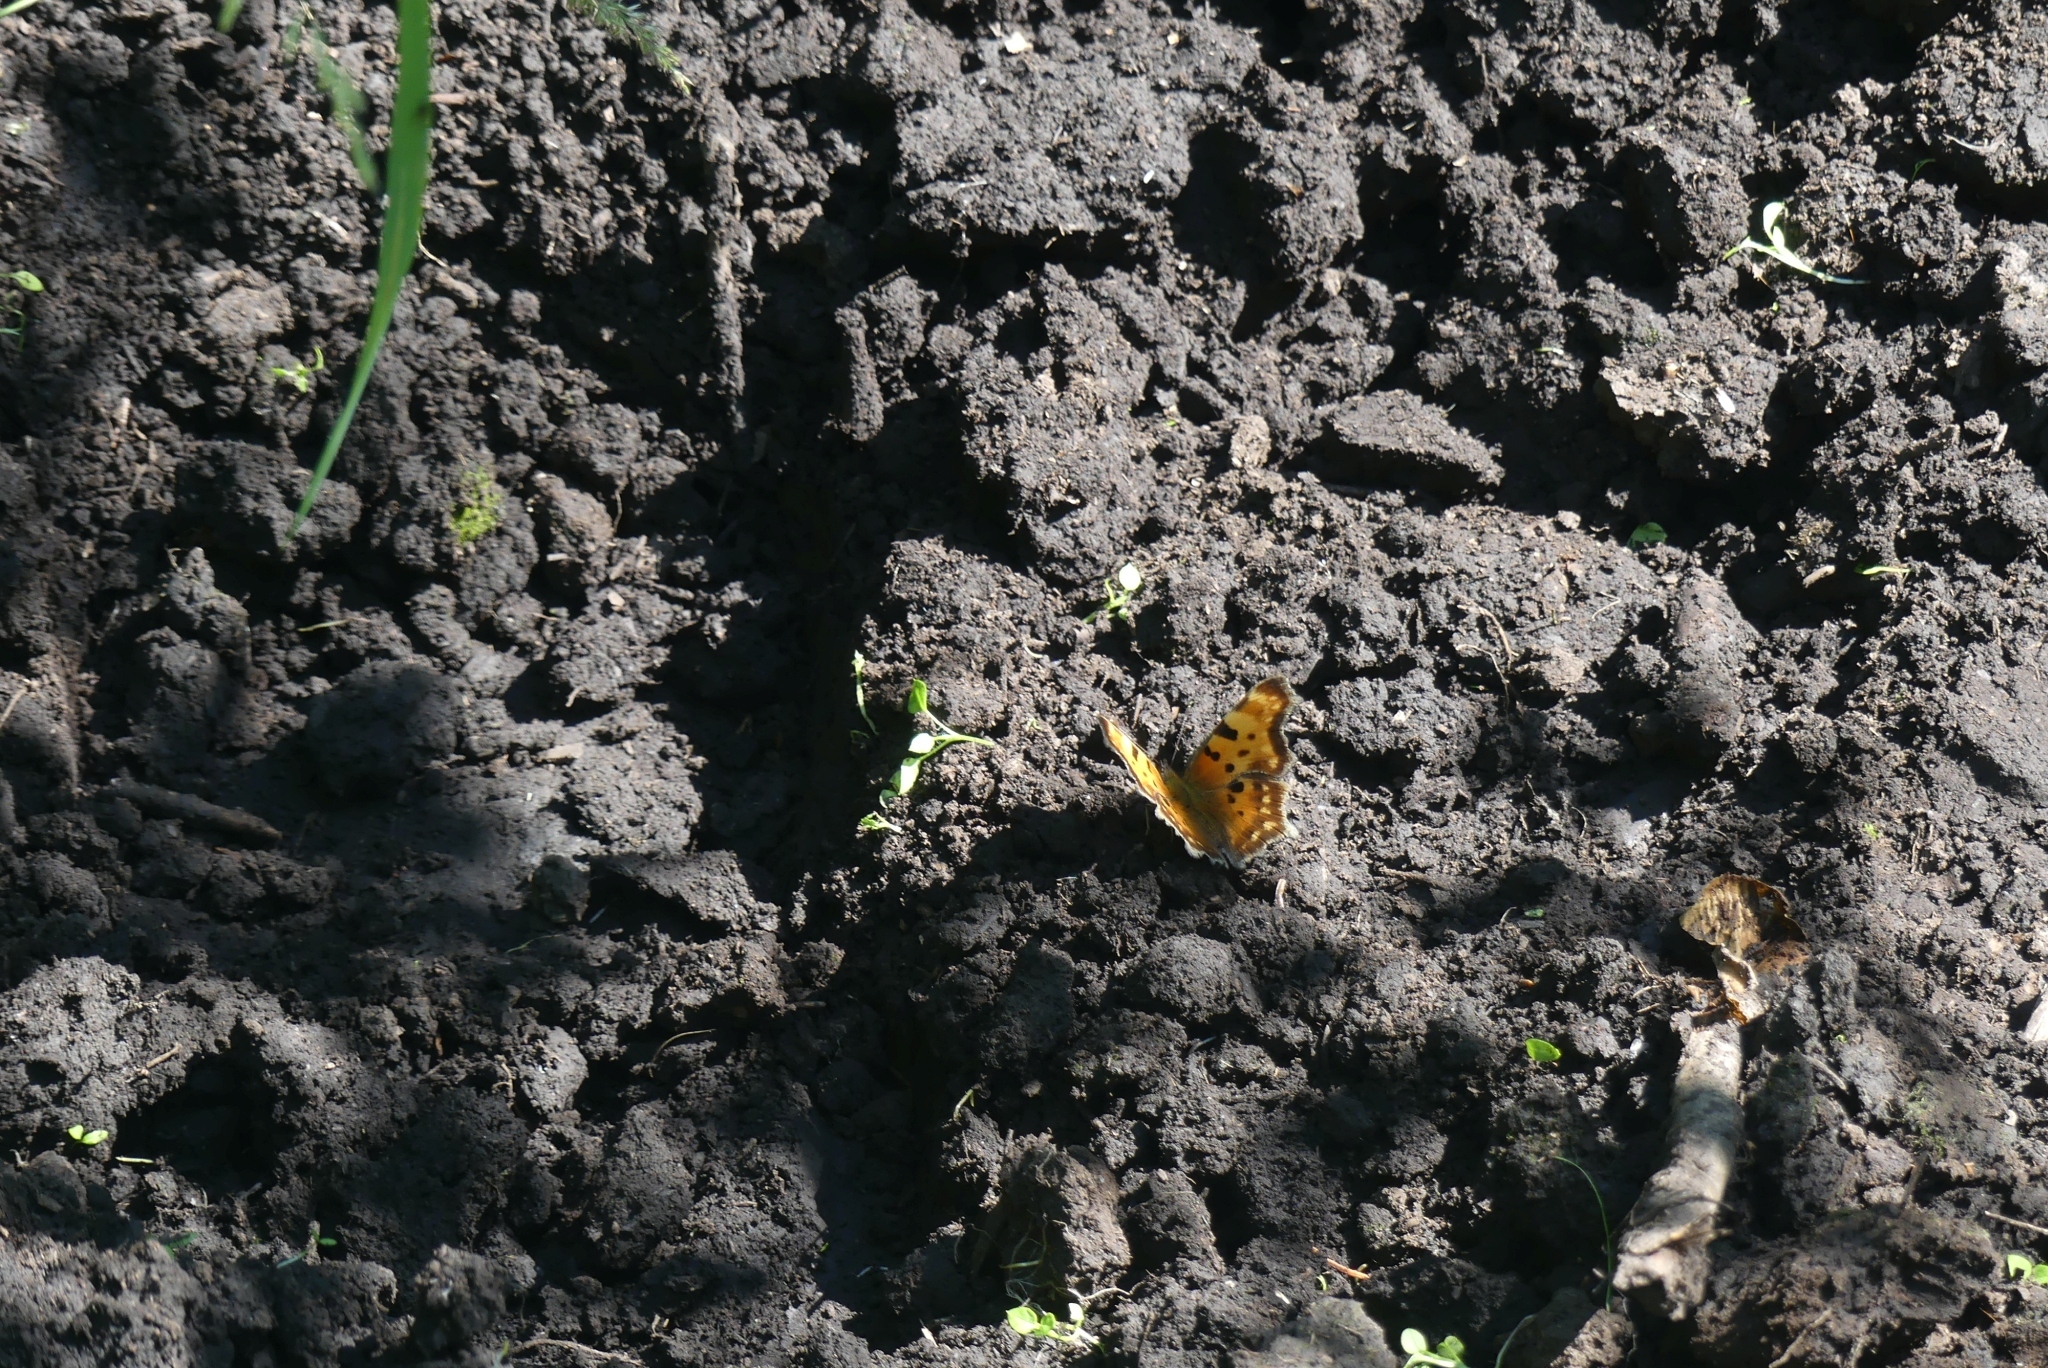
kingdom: Animalia
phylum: Arthropoda
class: Insecta
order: Lepidoptera
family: Nymphalidae
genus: Polygonia
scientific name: Polygonia faunus
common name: Green comma
